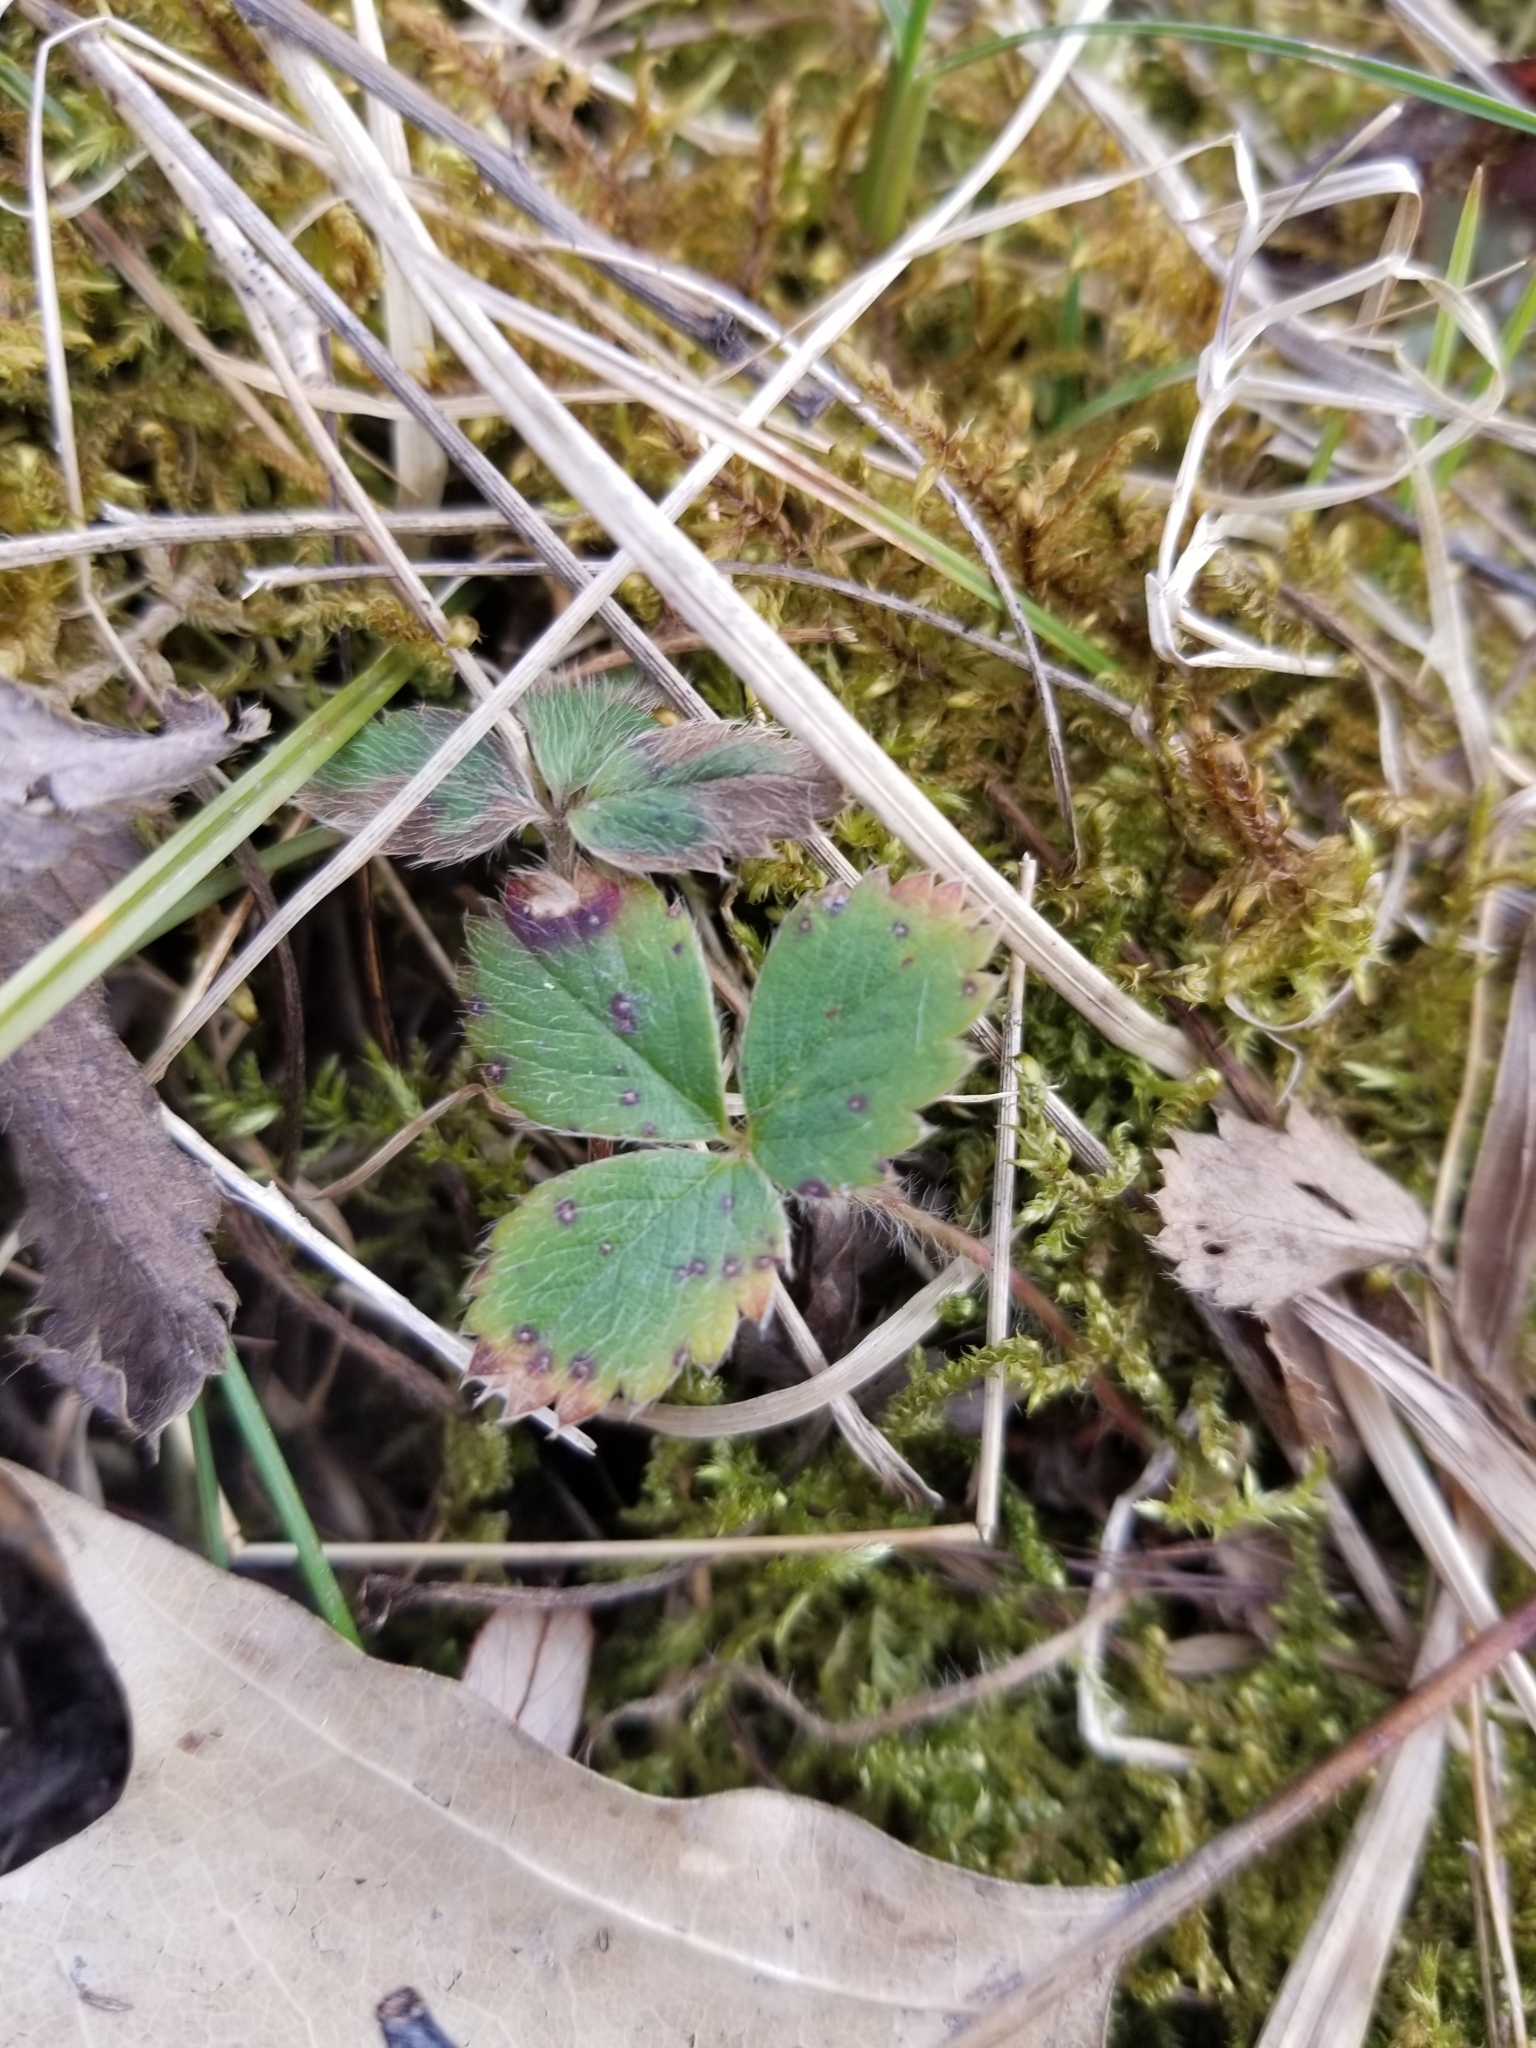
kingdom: Plantae
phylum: Tracheophyta
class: Magnoliopsida
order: Rosales
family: Rosaceae
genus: Fragaria
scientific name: Fragaria virginiana
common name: Thickleaved wild strawberry
